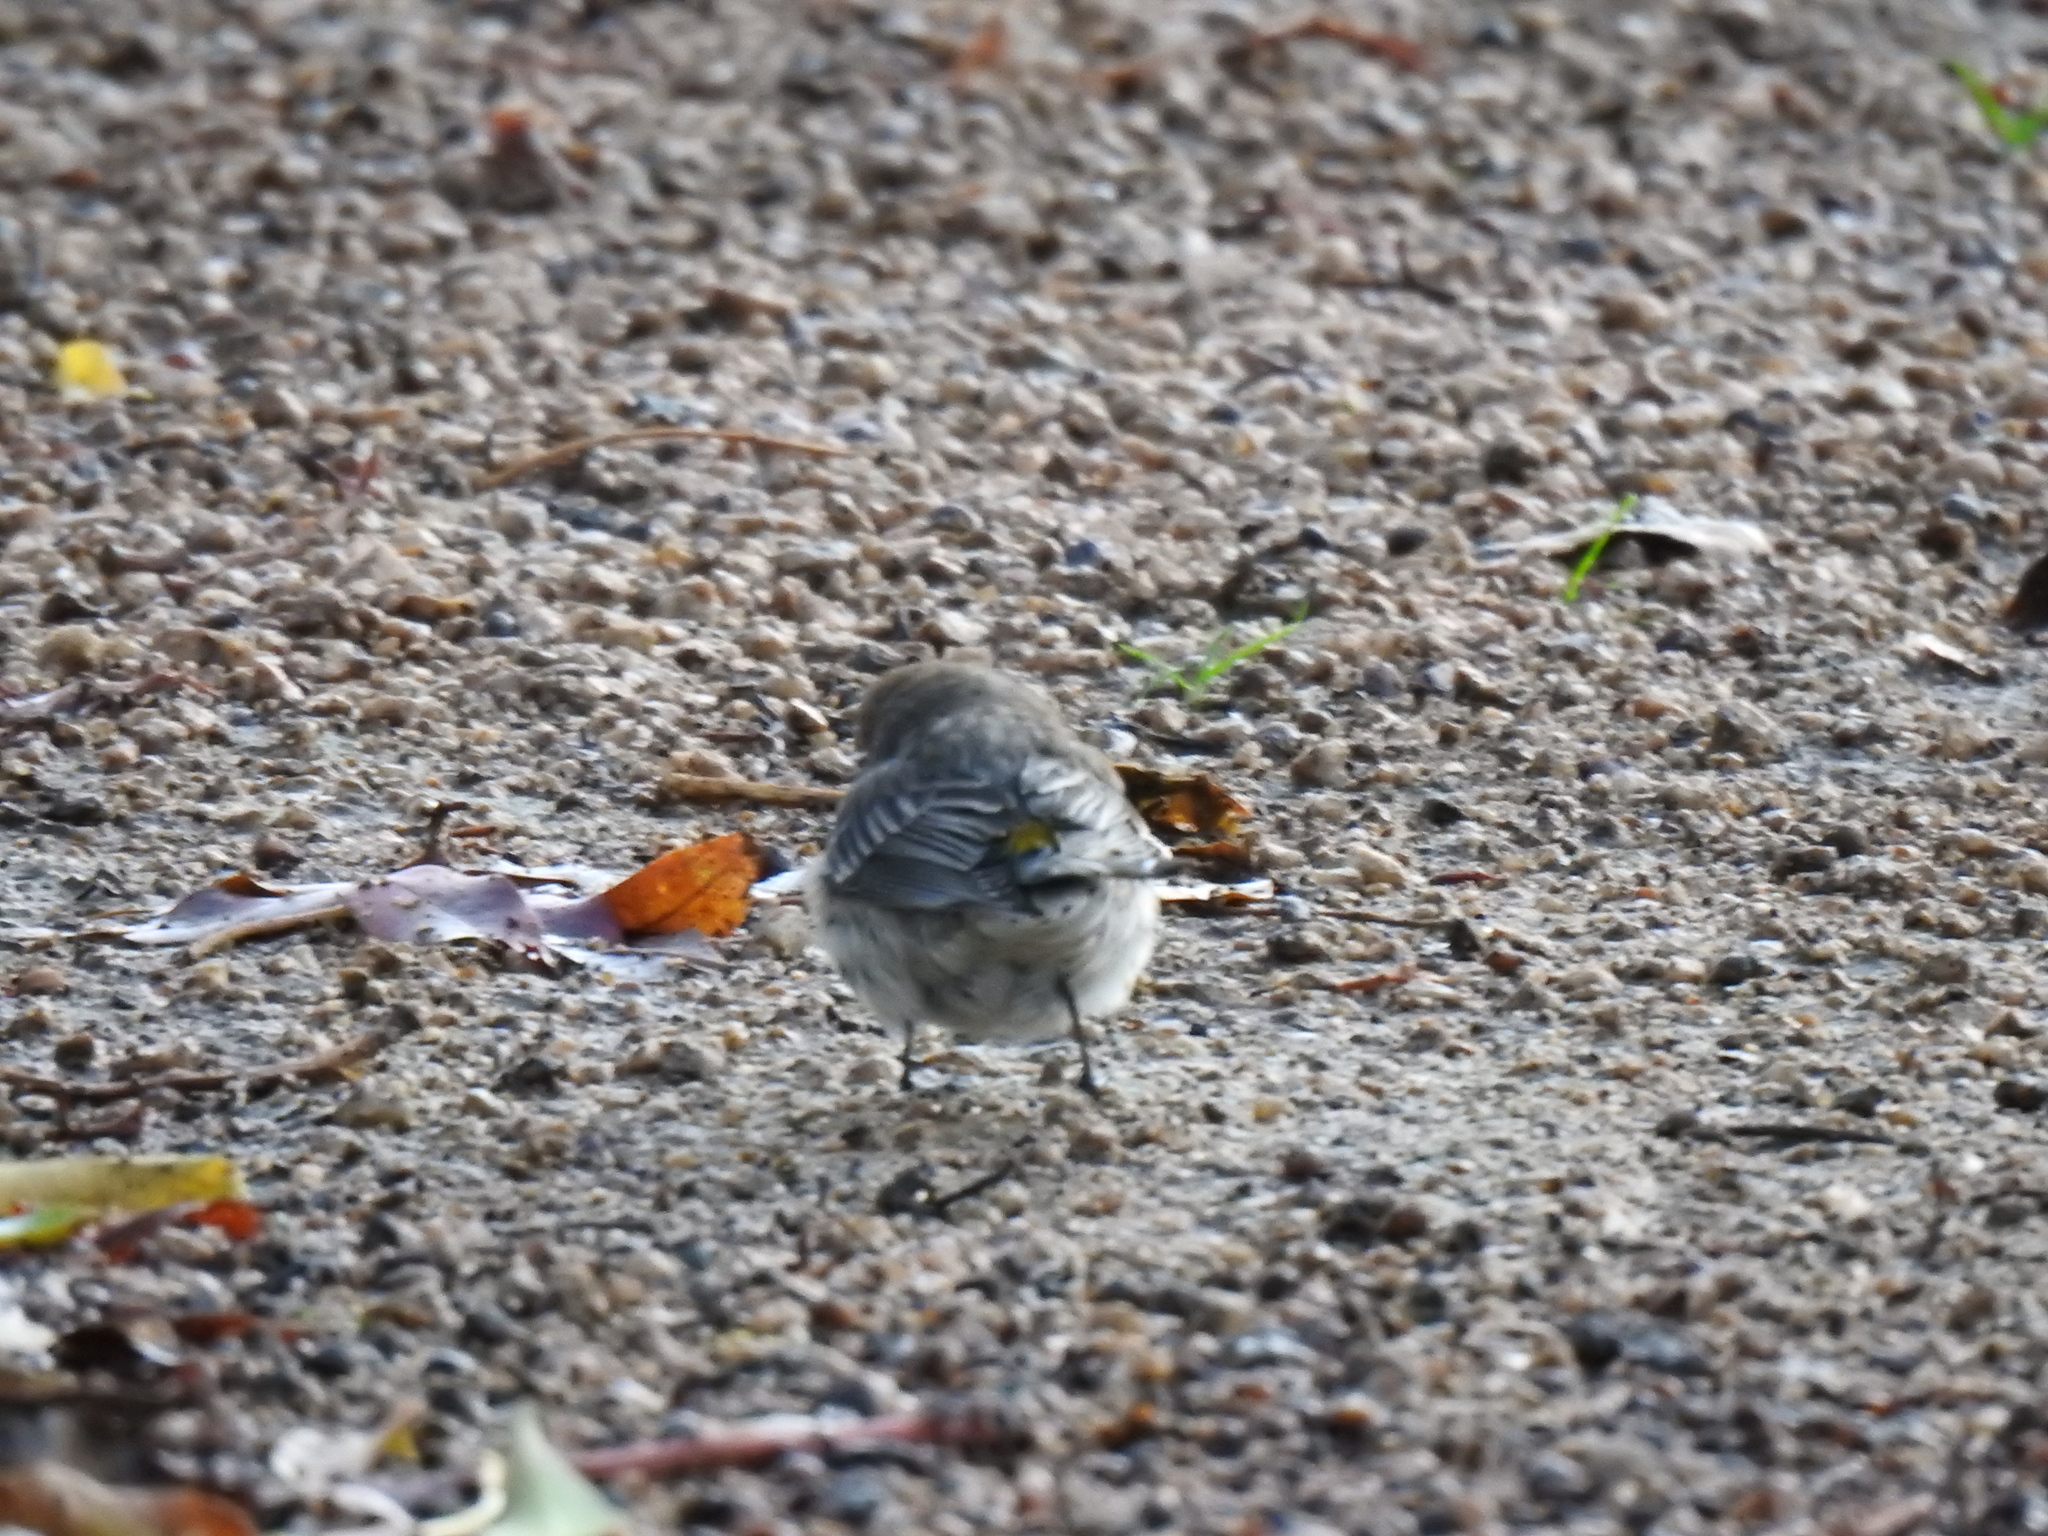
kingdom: Animalia
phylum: Chordata
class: Aves
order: Passeriformes
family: Parulidae
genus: Setophaga
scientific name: Setophaga coronata
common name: Myrtle warbler
